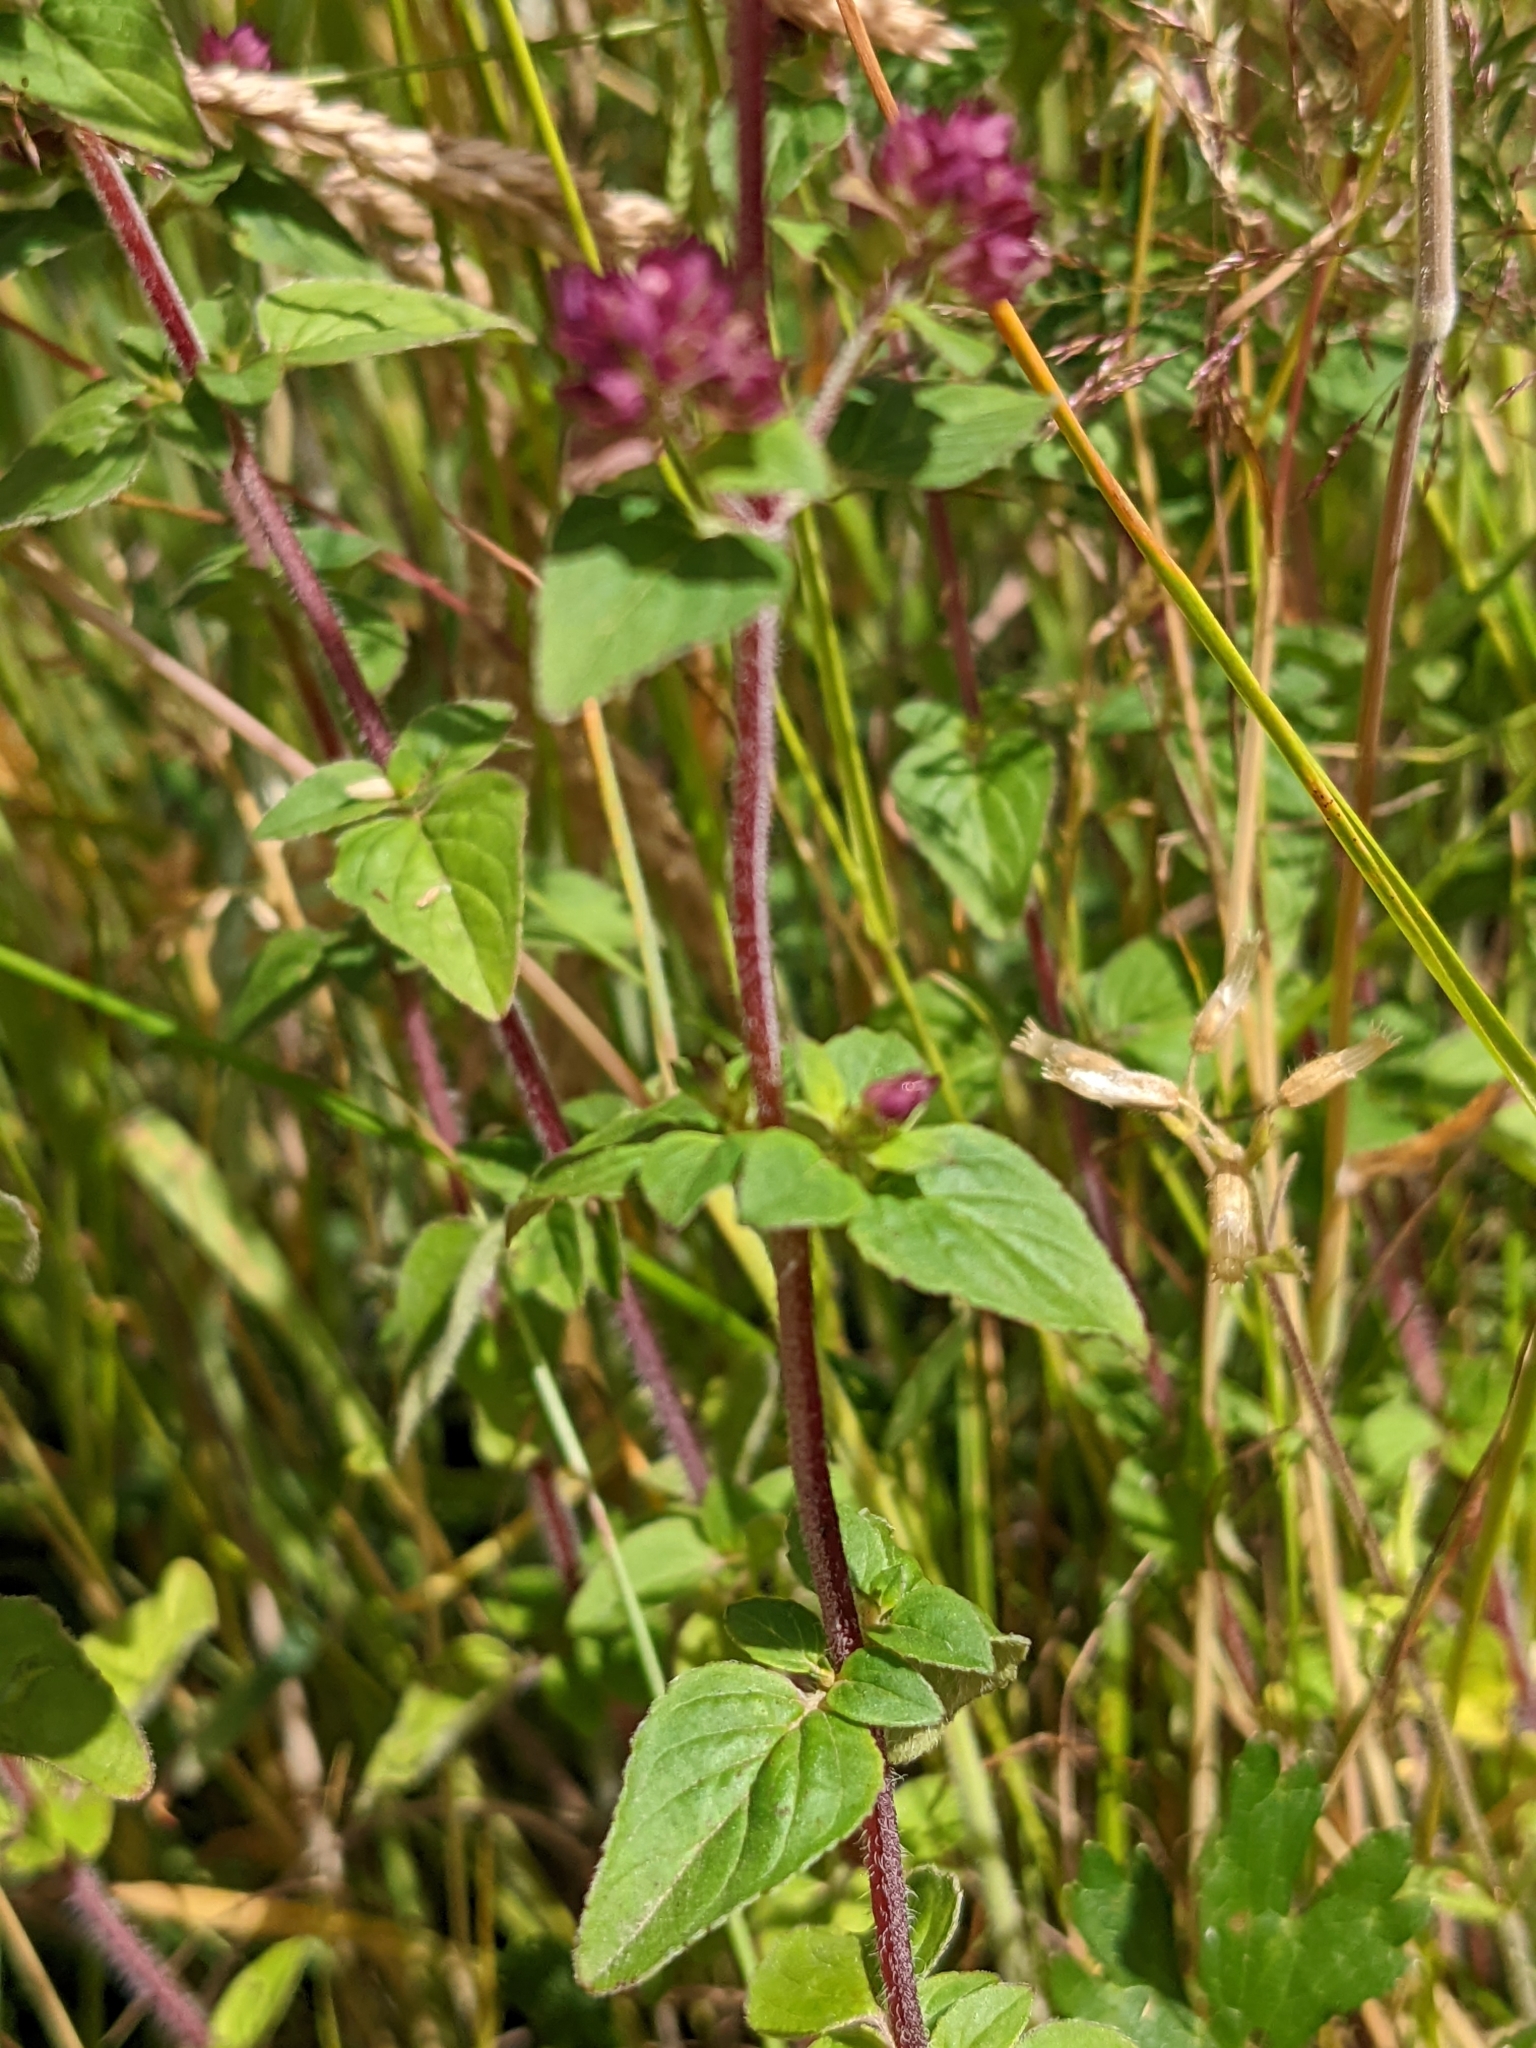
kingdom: Plantae
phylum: Tracheophyta
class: Magnoliopsida
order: Lamiales
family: Lamiaceae
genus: Origanum
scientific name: Origanum vulgare
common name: Wild marjoram
